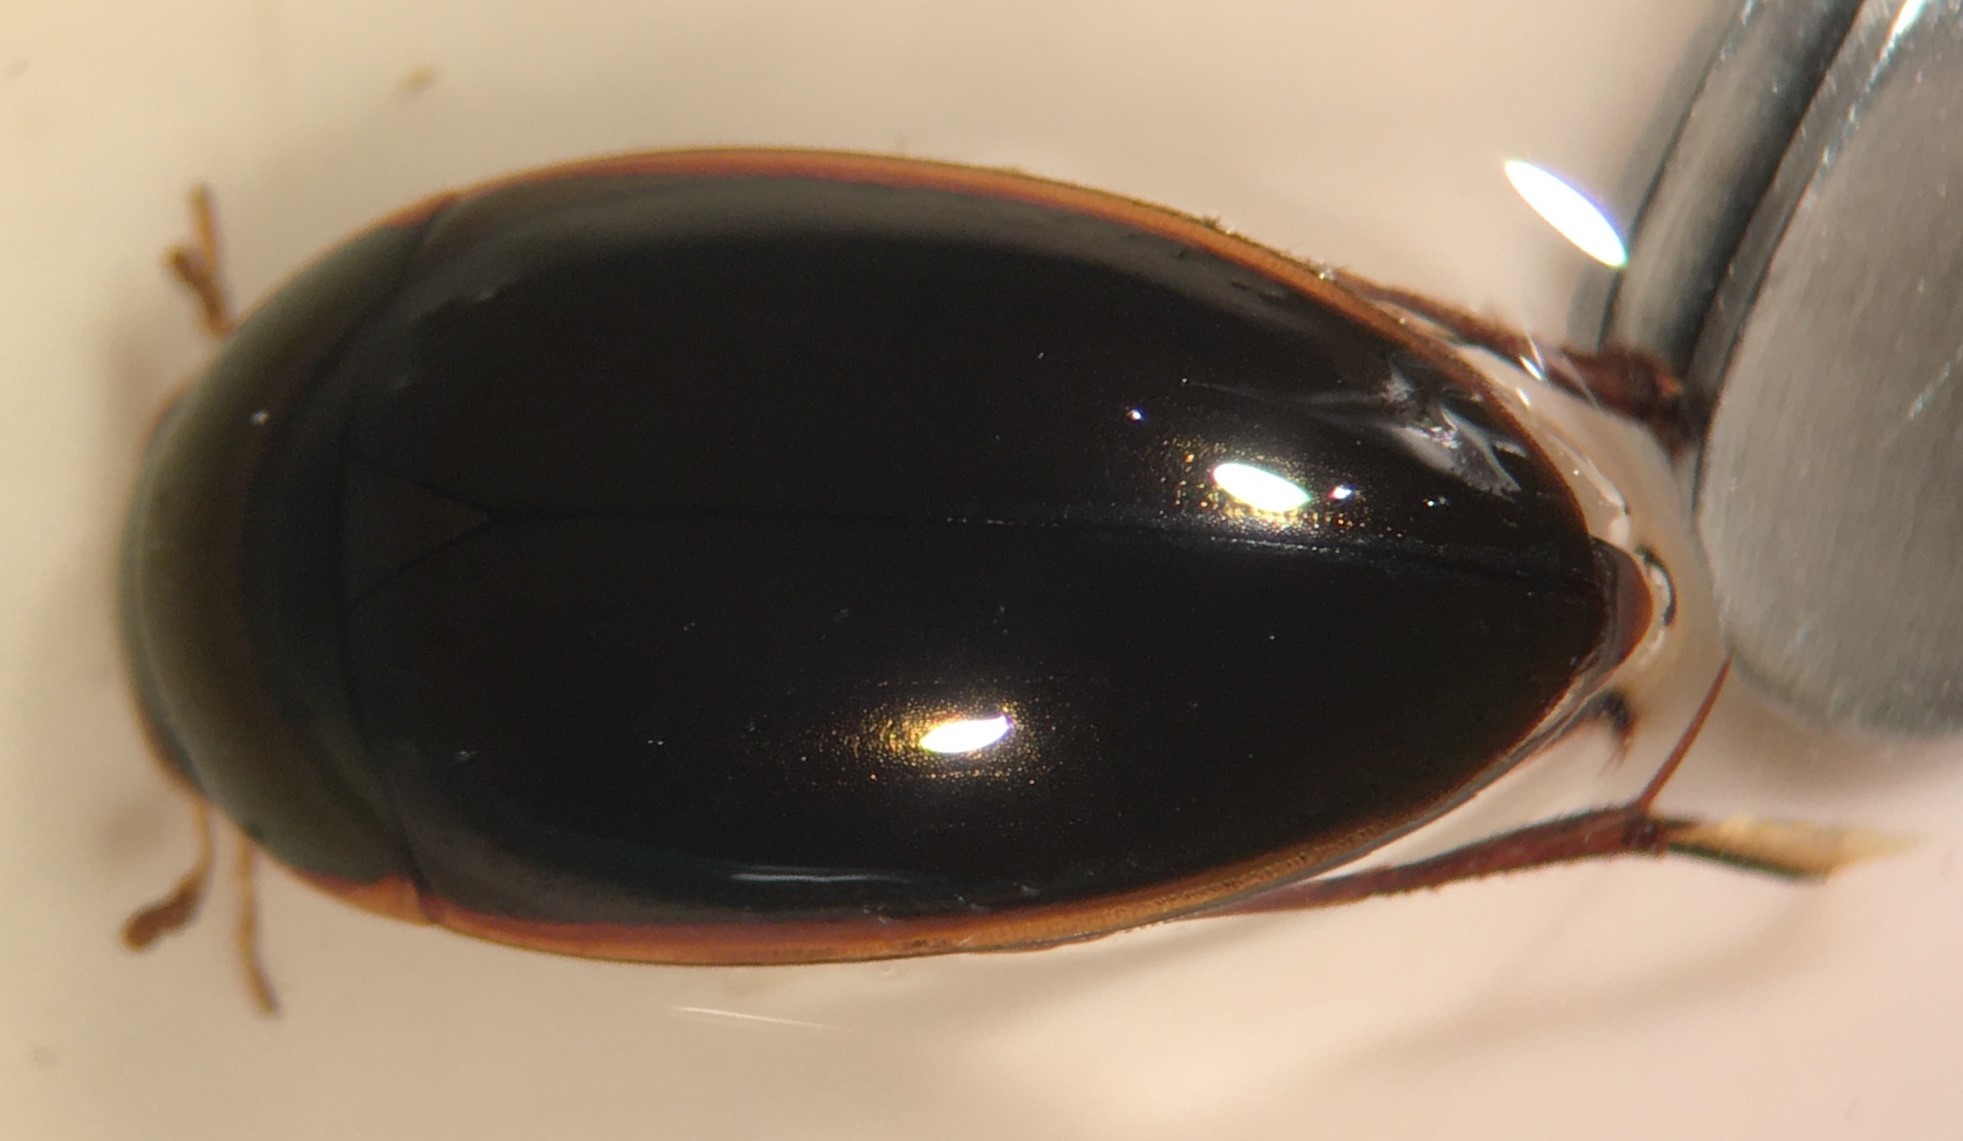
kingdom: Animalia
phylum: Arthropoda
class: Insecta
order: Coleoptera
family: Hydrophilidae
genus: Tropisternus
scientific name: Tropisternus lateralis
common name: Lateral-banded water scavenger beetle
